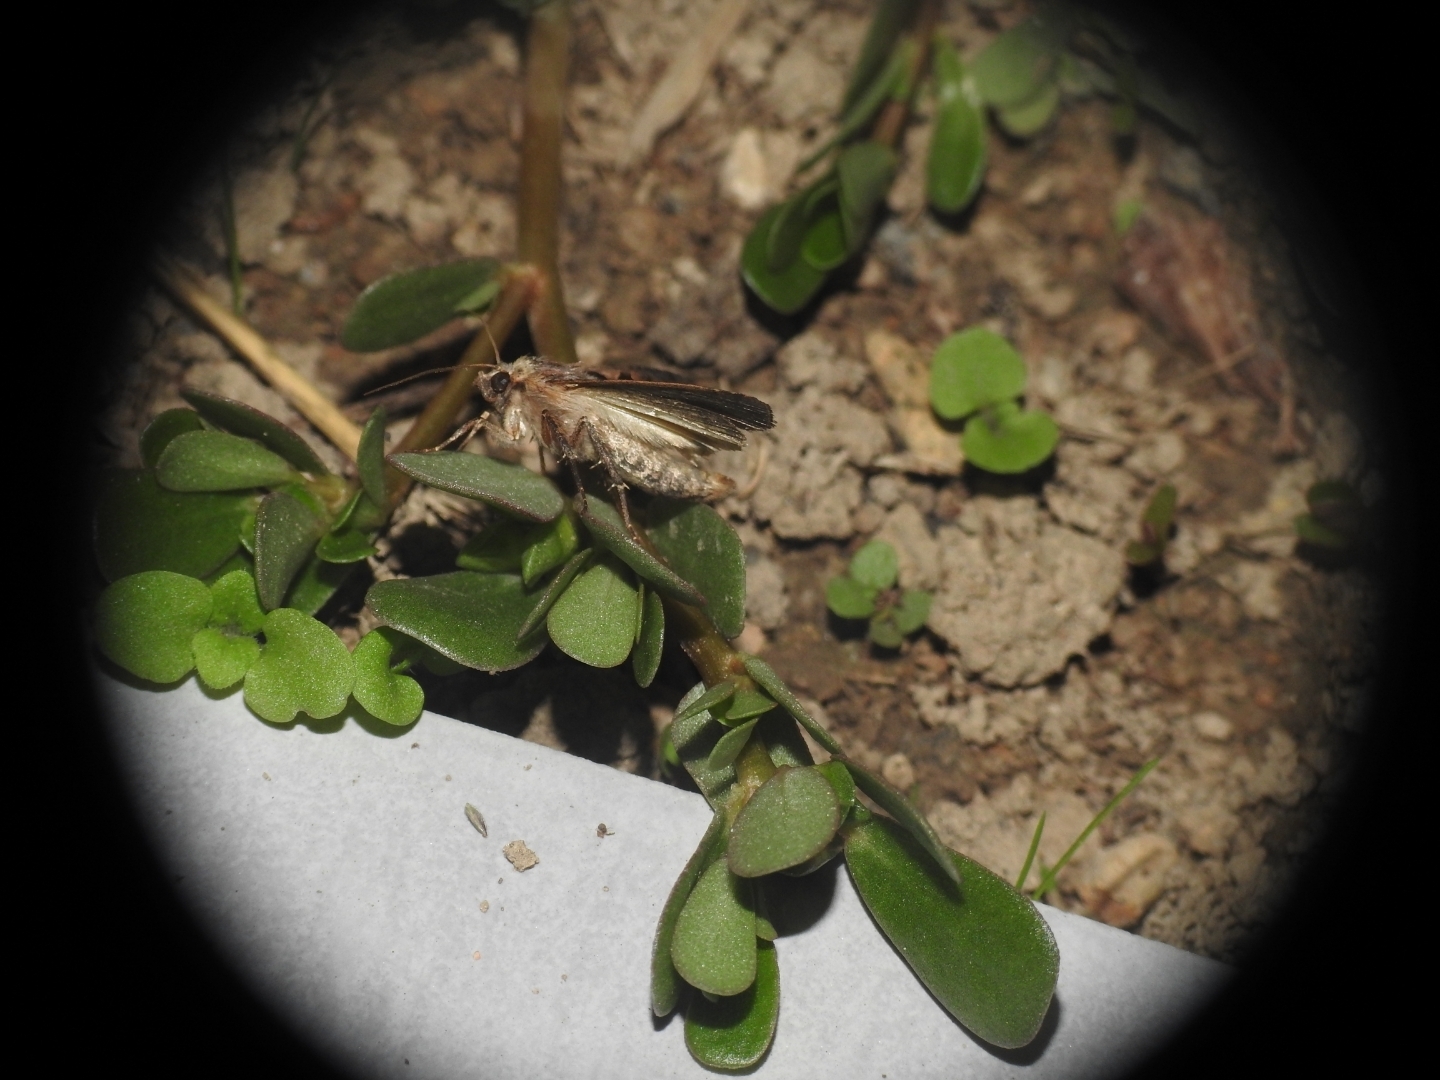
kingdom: Animalia
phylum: Arthropoda
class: Insecta
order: Lepidoptera
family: Noctuidae
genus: Xestia
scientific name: Xestia c-nigrum
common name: Setaceous hebrew character
